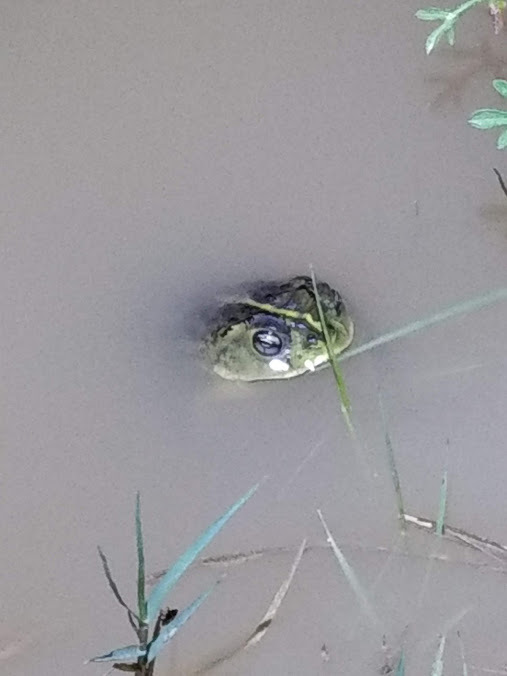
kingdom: Animalia
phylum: Chordata
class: Amphibia
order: Anura
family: Bufonidae
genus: Rhinella
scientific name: Rhinella dorbignyi
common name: D´orbigny’s toad
